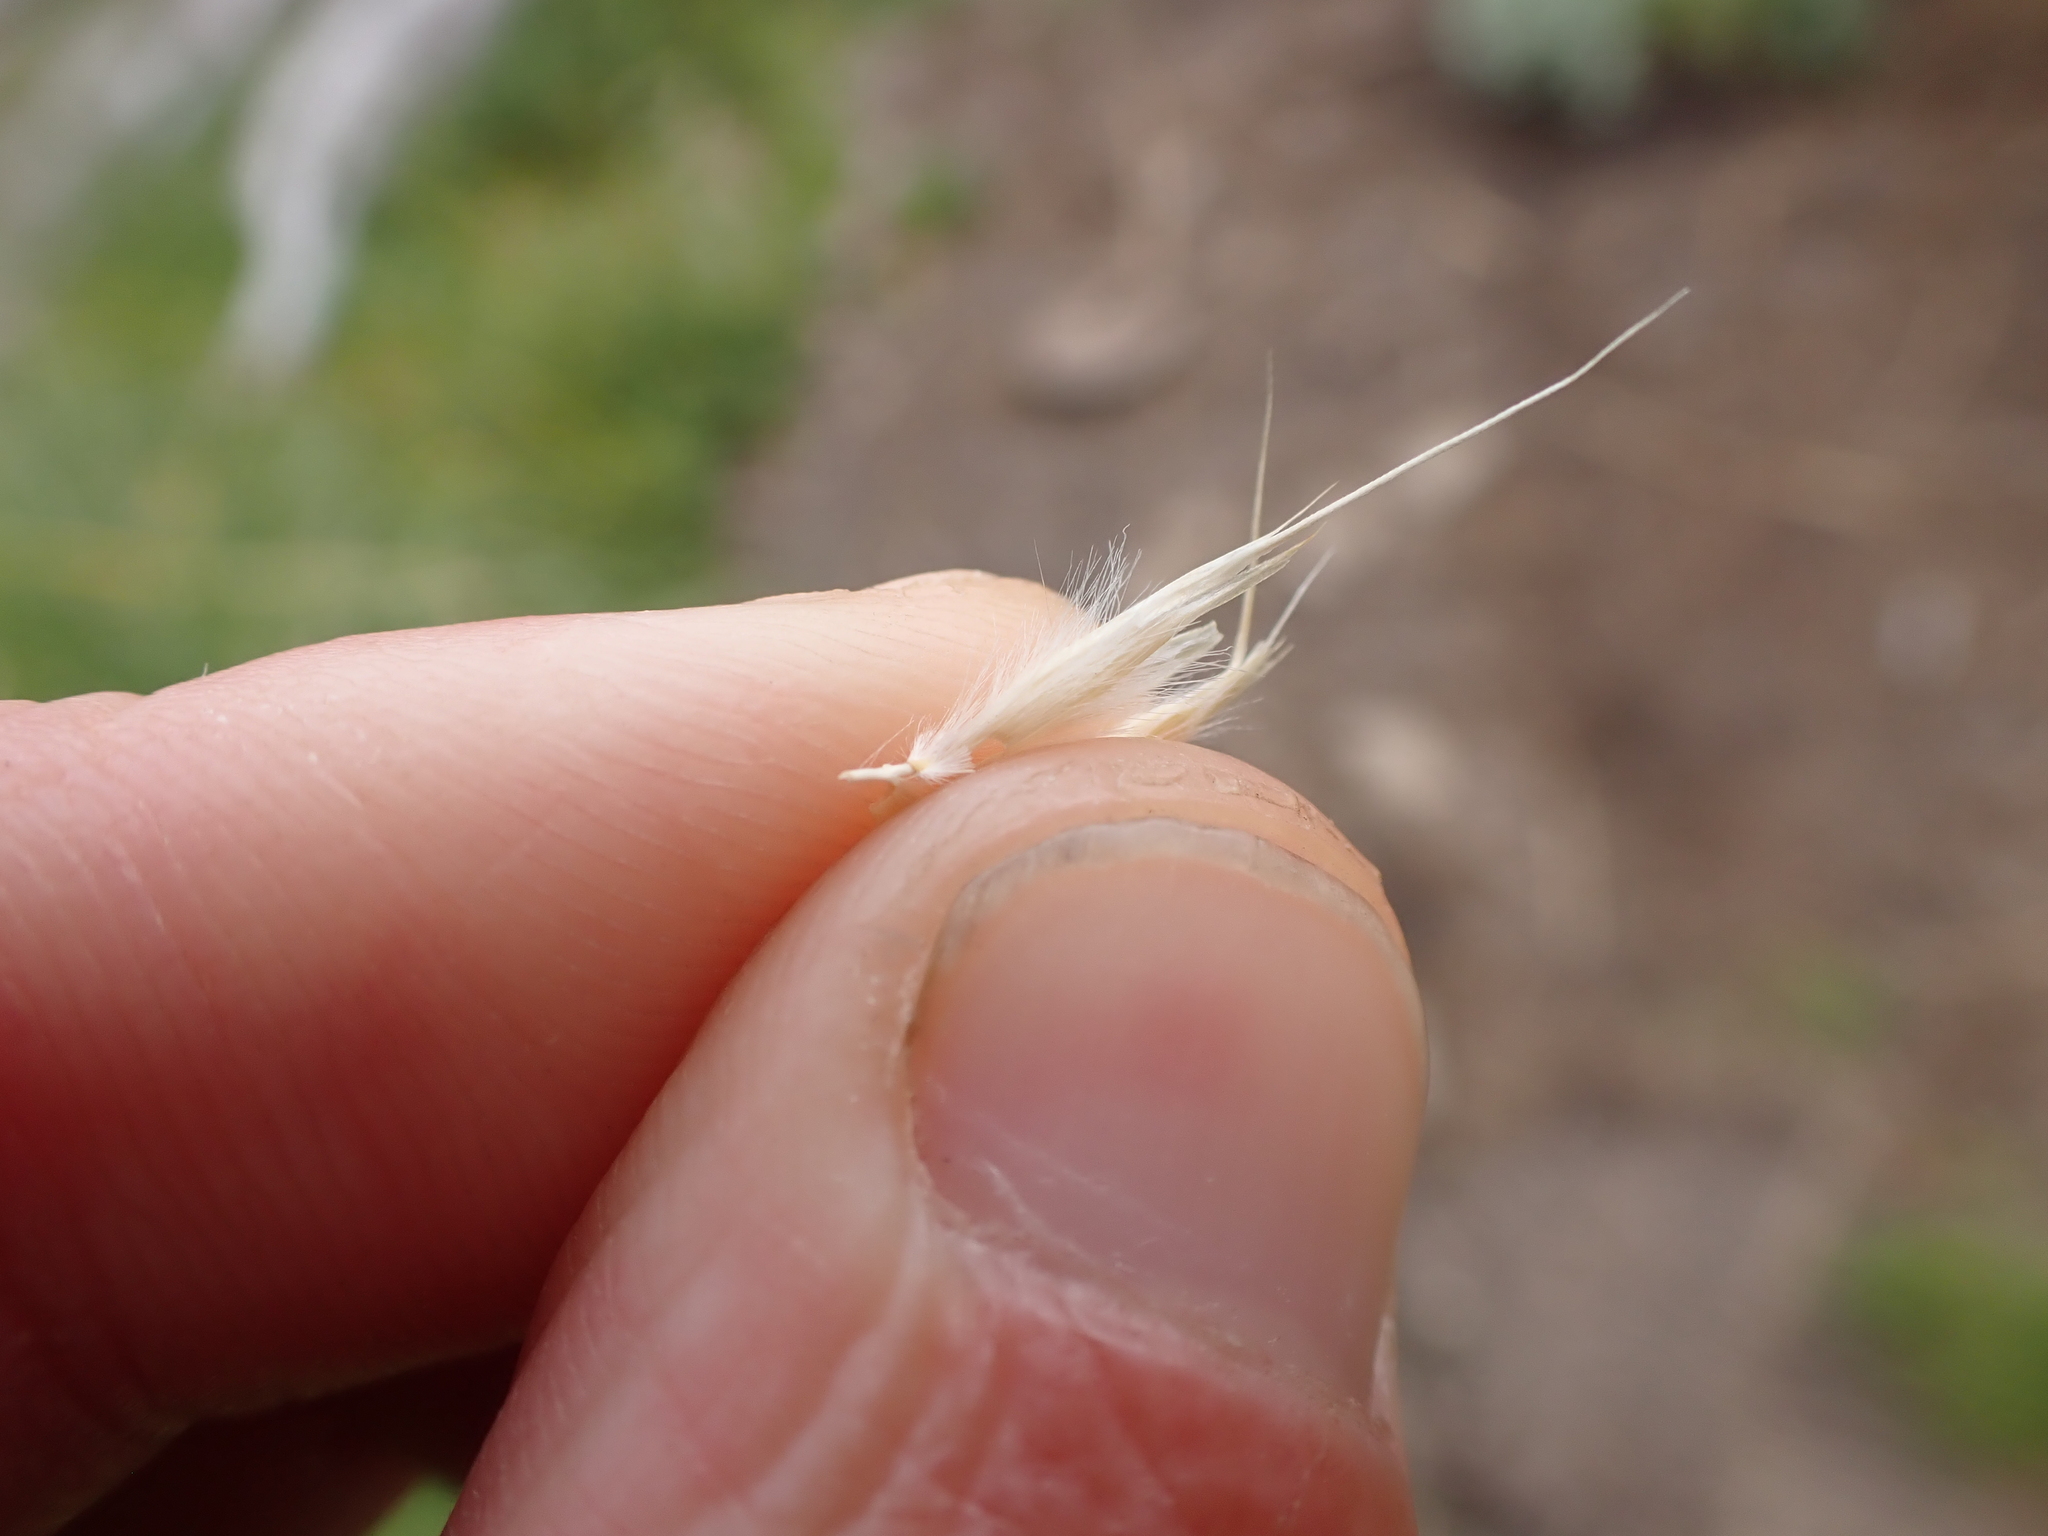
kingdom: Plantae
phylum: Tracheophyta
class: Liliopsida
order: Poales
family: Poaceae
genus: Chionochloa
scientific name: Chionochloa frigida
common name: Robust wallaby grass
